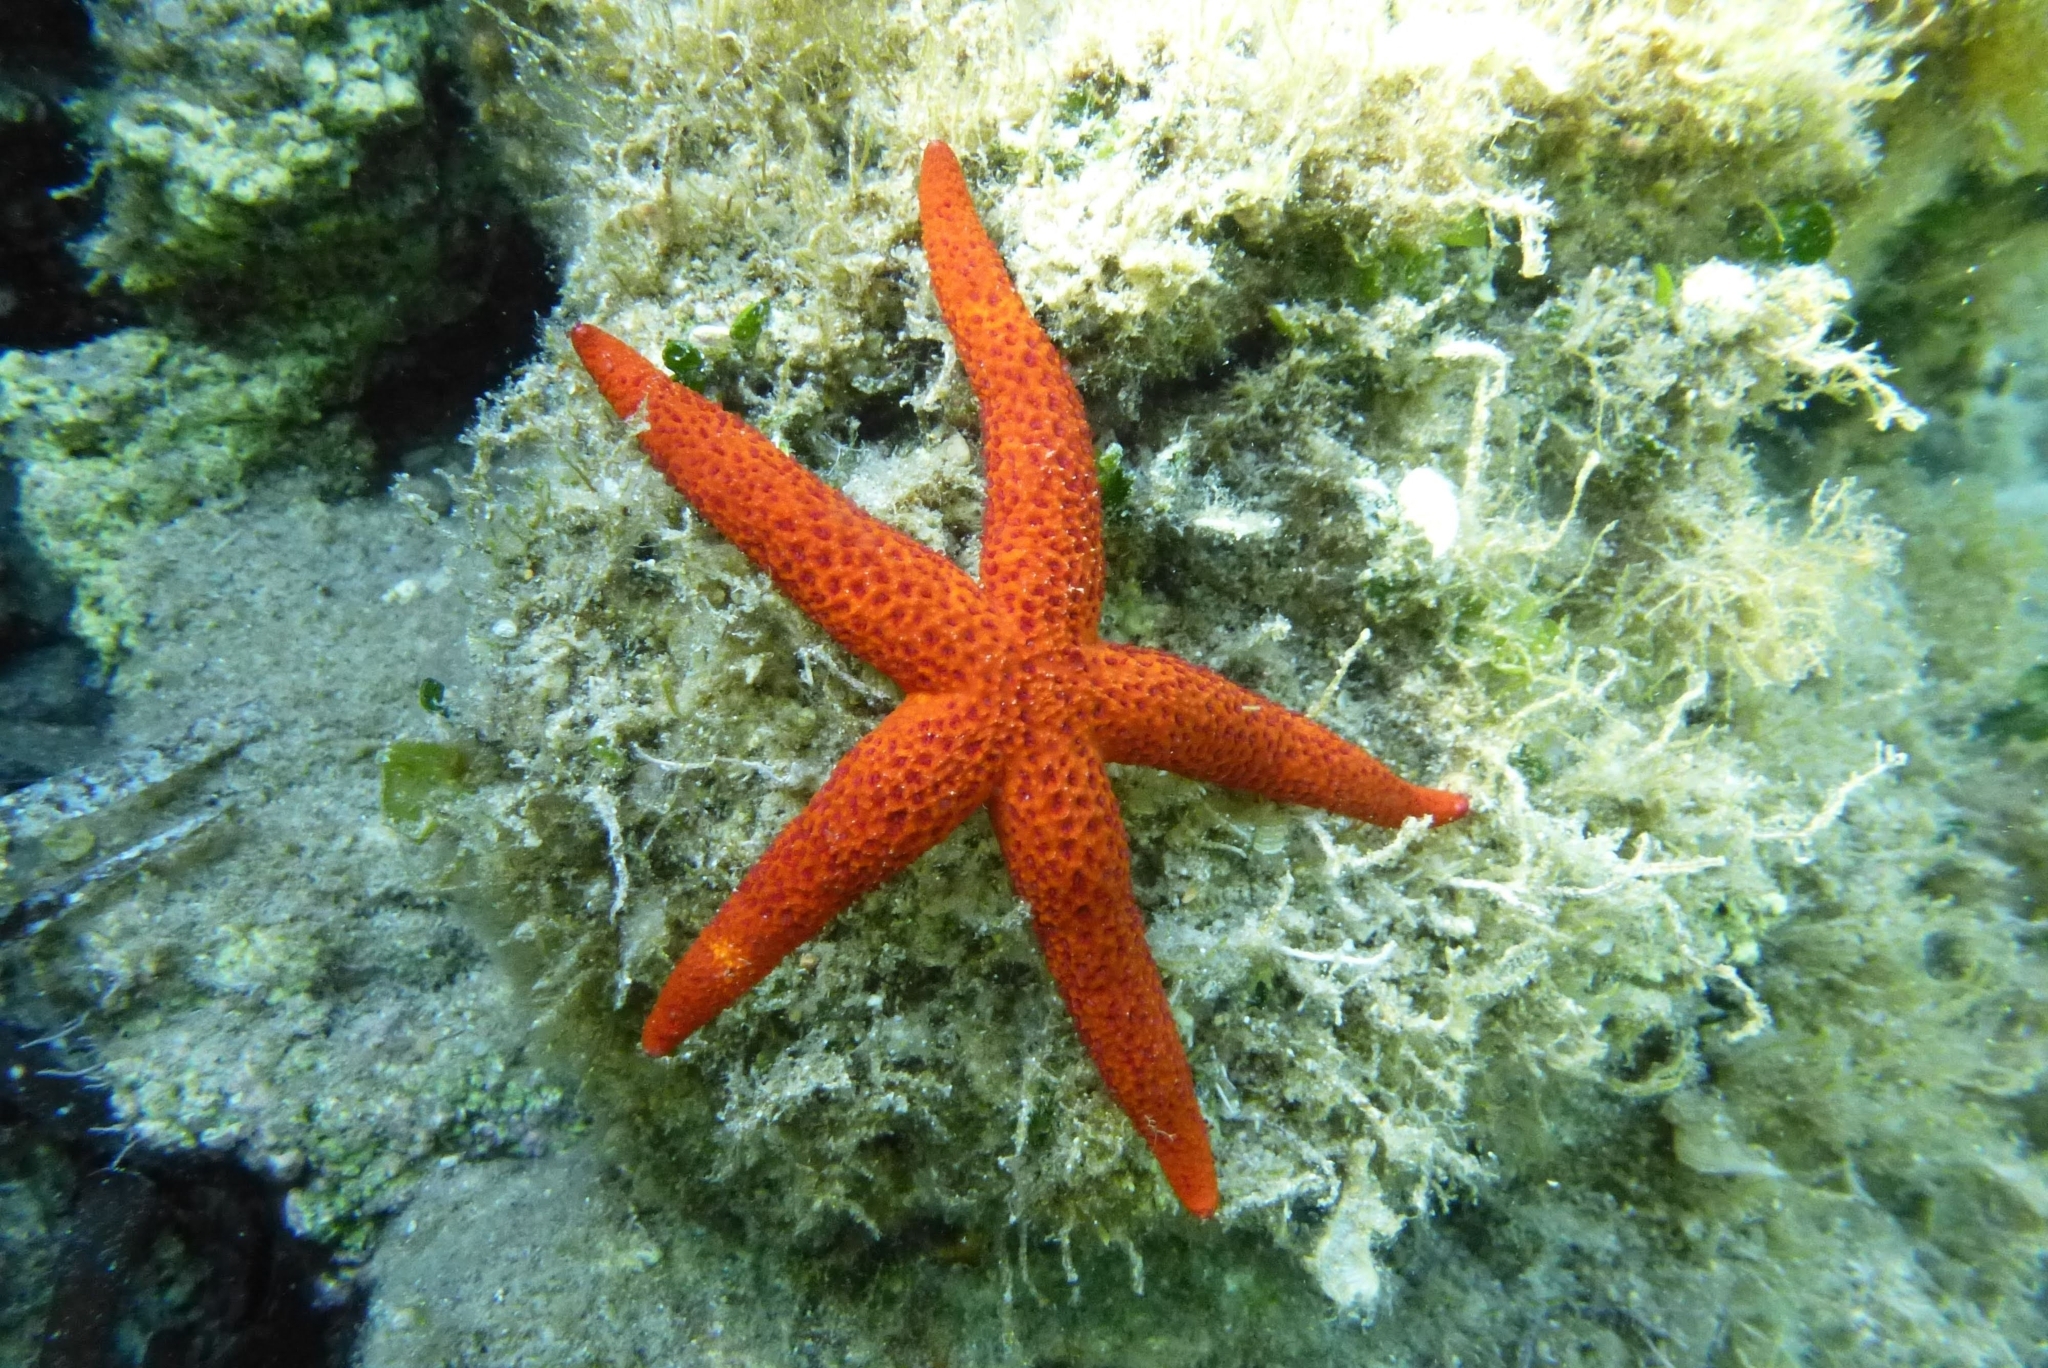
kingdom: Animalia
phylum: Echinodermata
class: Asteroidea
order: Spinulosida
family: Echinasteridae
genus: Echinaster
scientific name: Echinaster sepositus
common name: Red starfish
